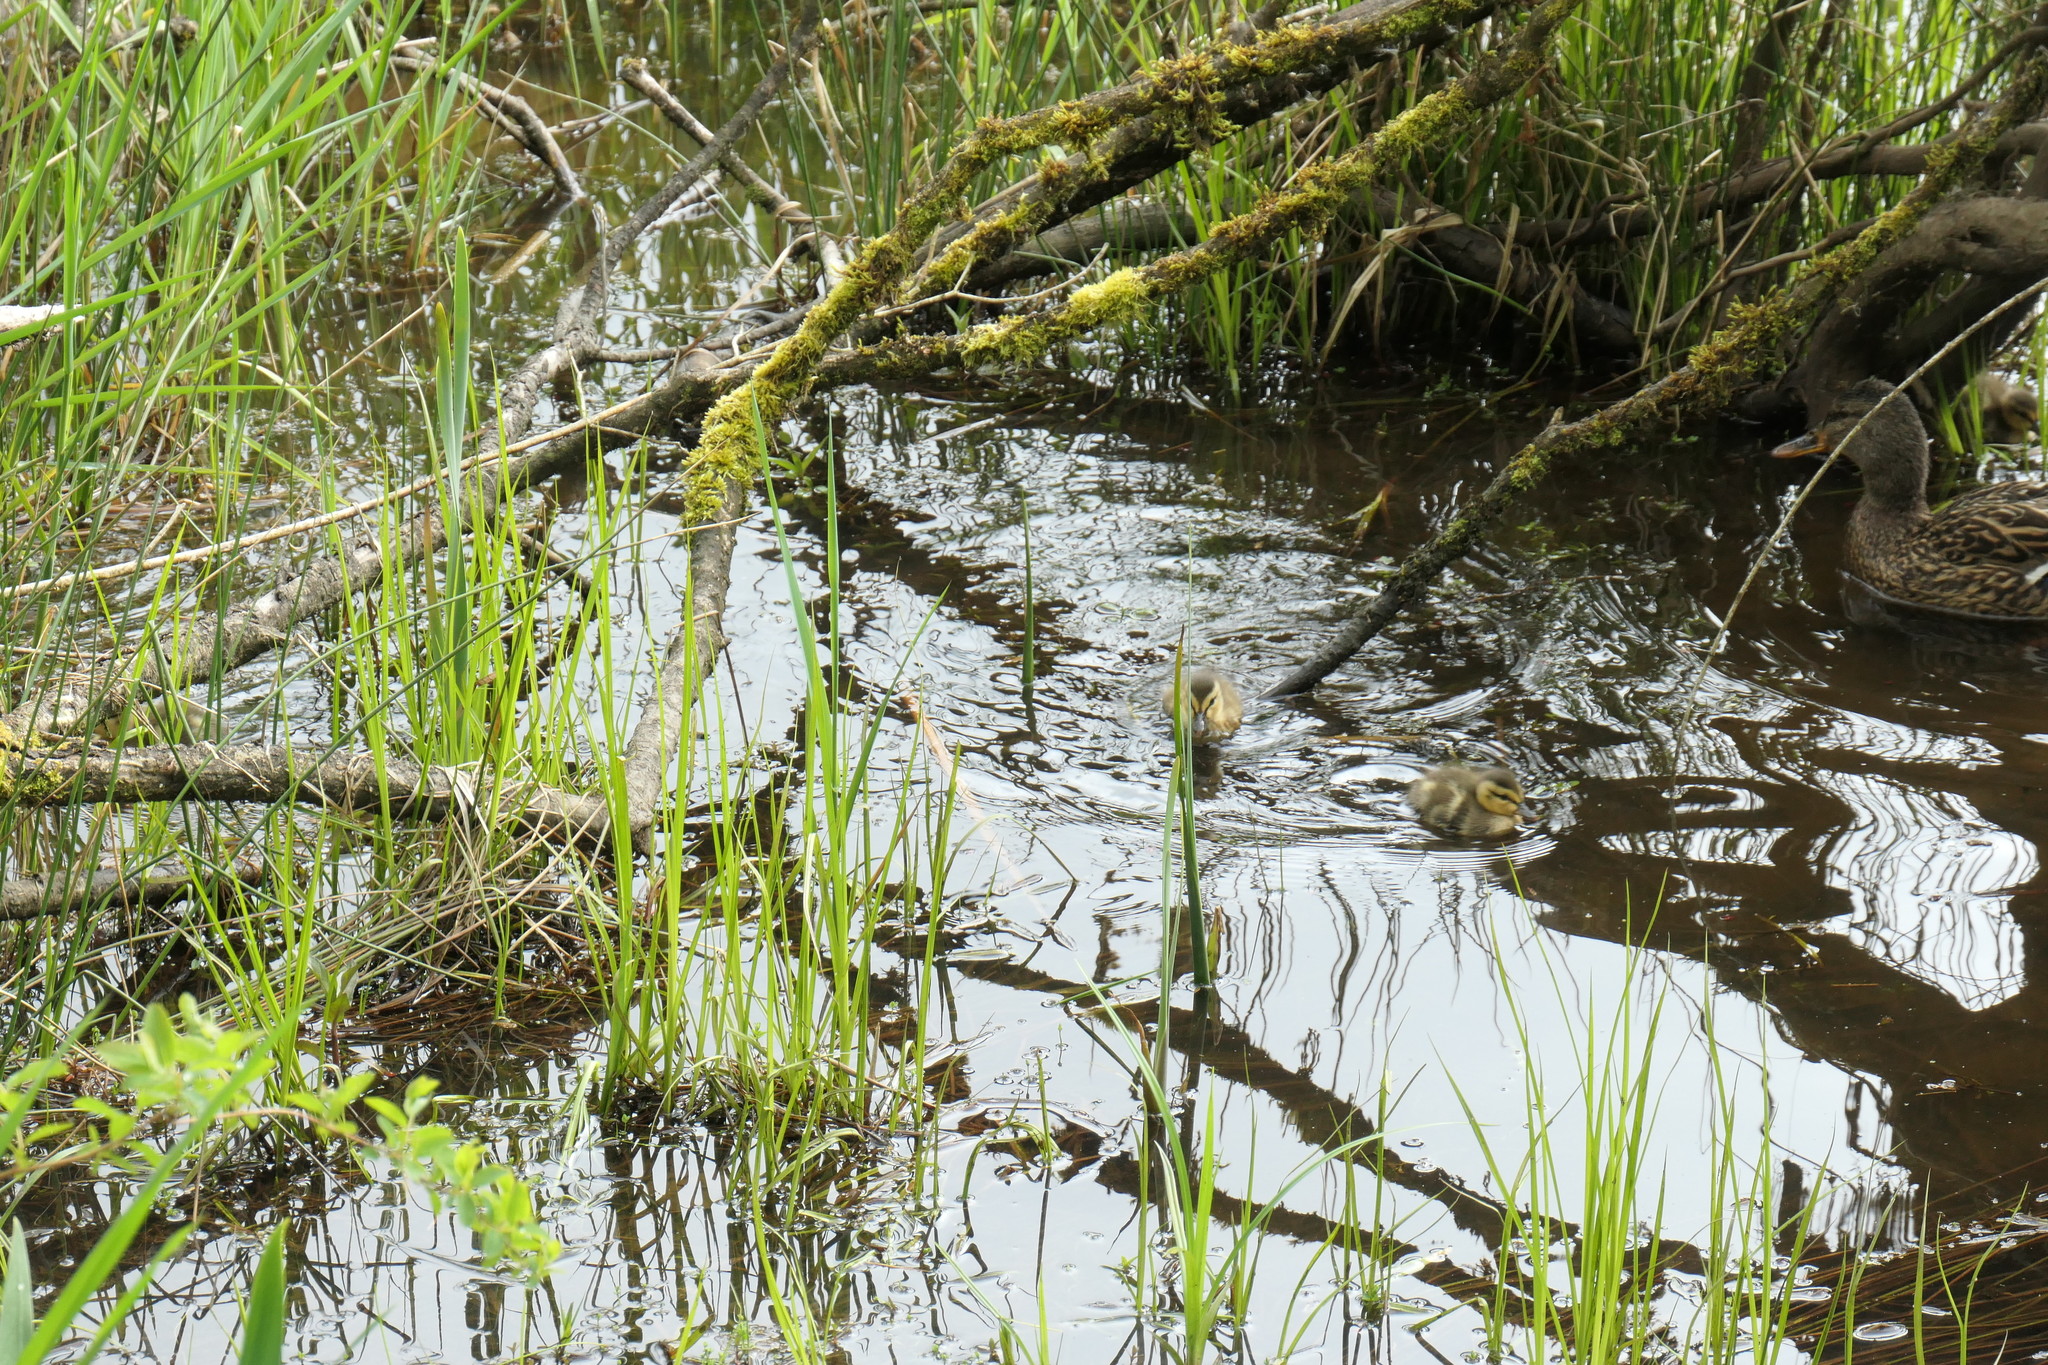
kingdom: Animalia
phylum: Chordata
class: Aves
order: Anseriformes
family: Anatidae
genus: Anas
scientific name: Anas platyrhynchos
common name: Mallard
